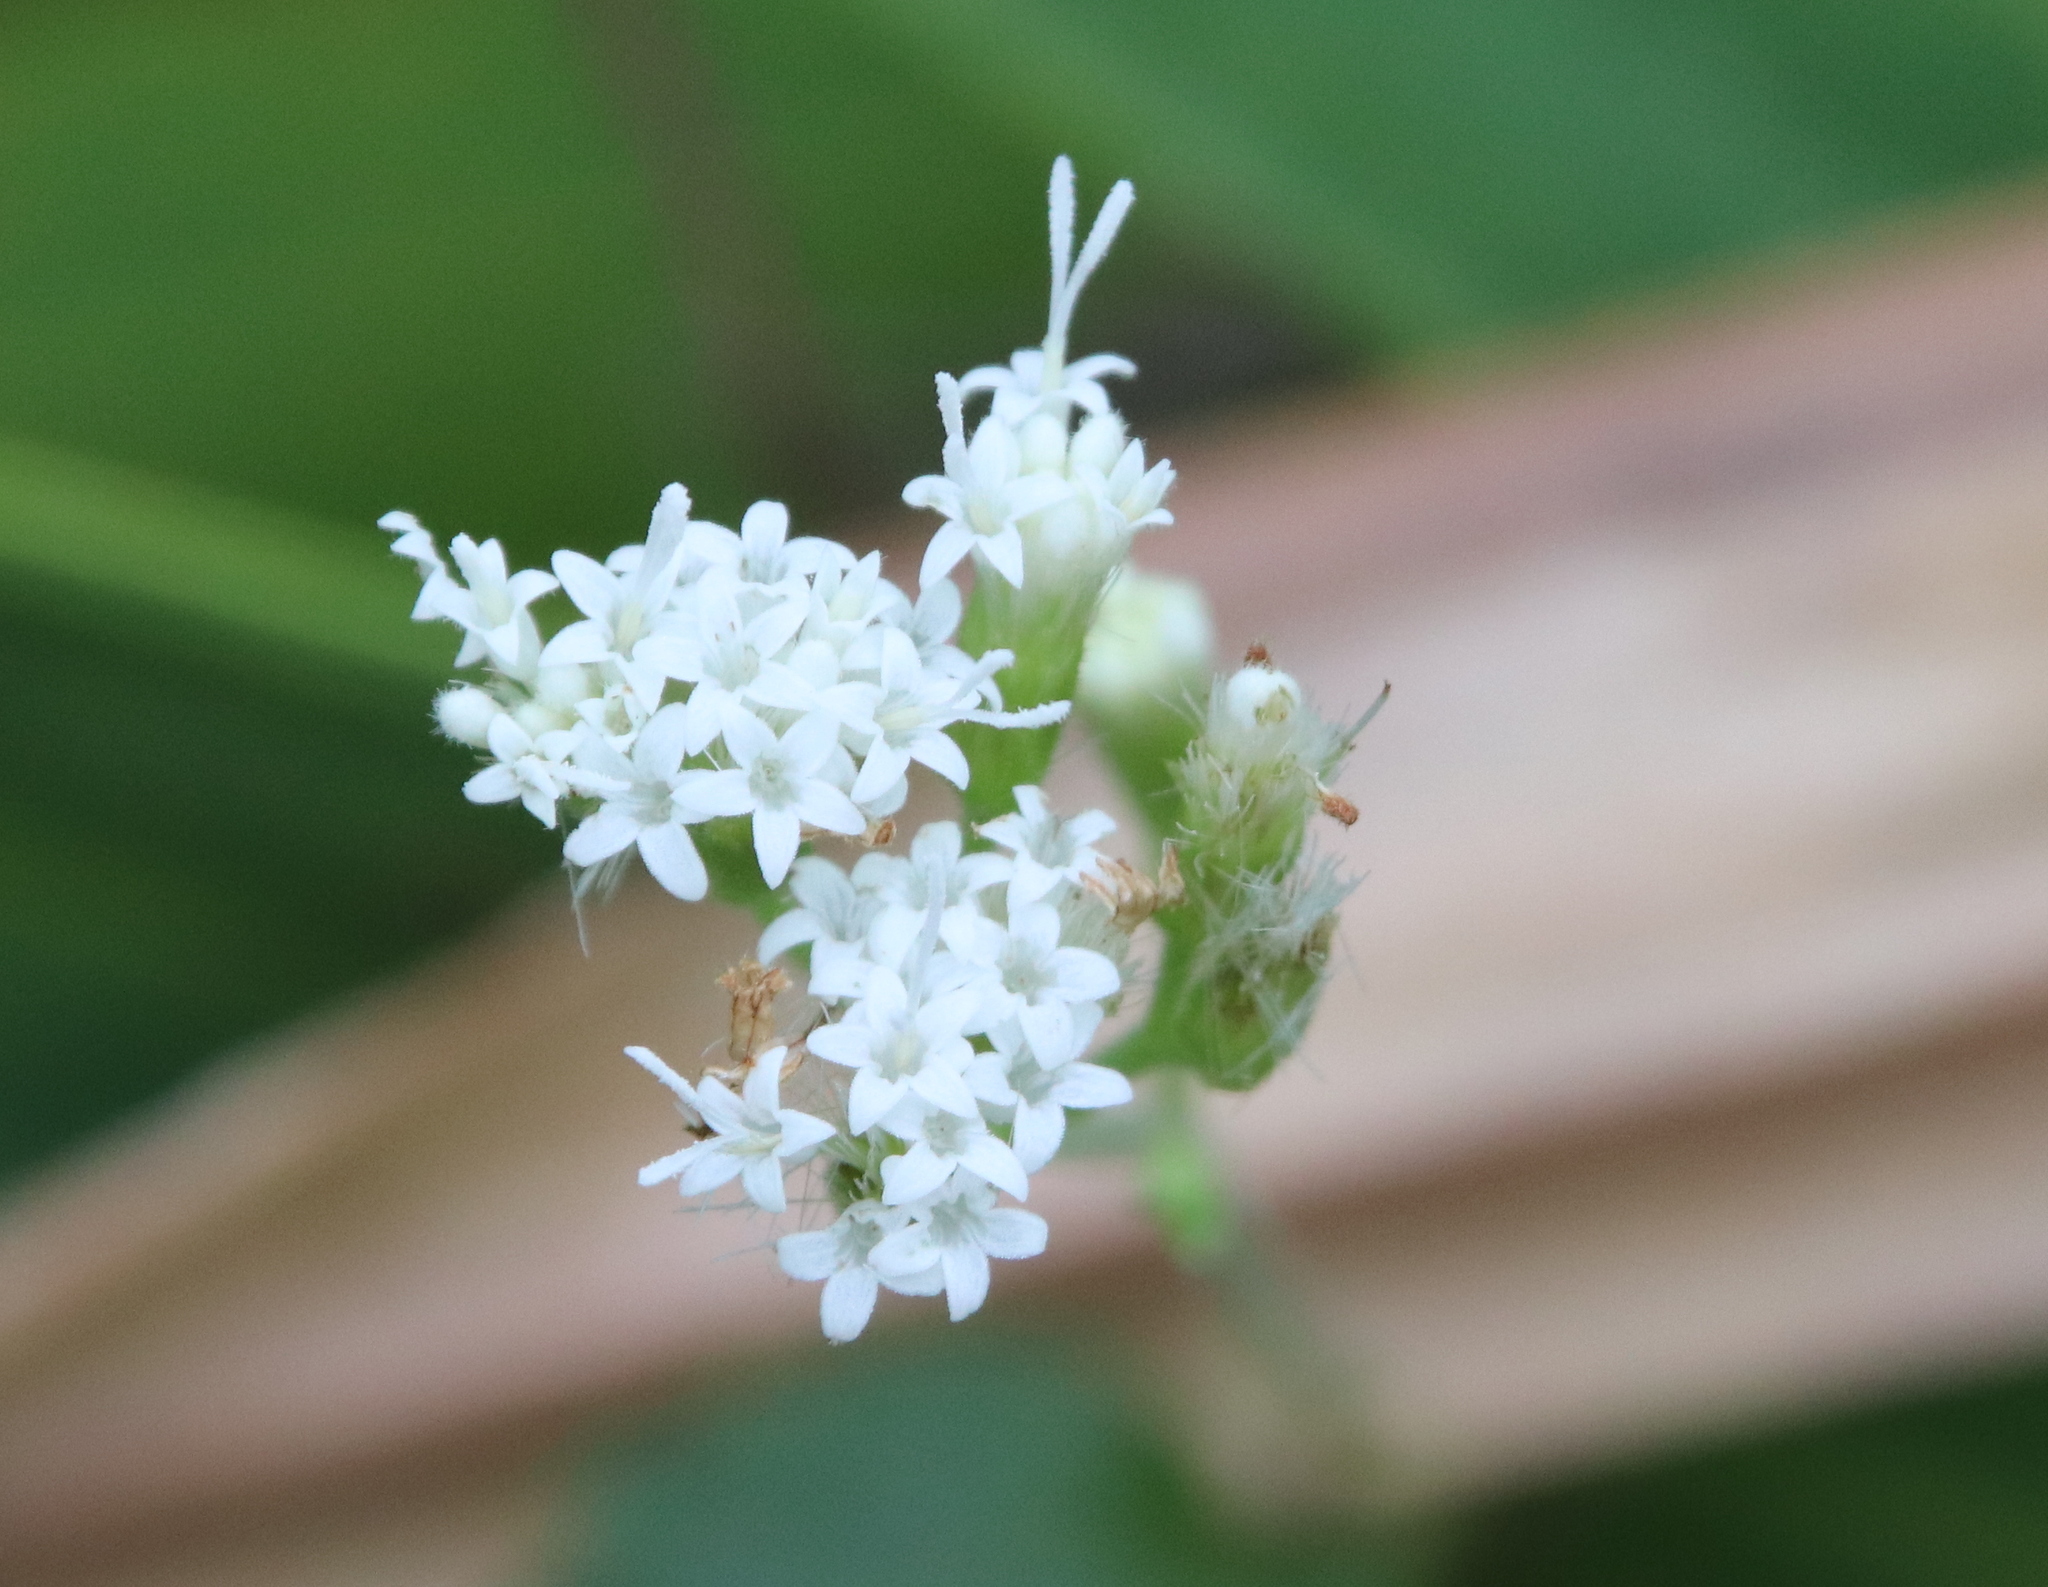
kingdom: Plantae
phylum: Tracheophyta
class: Magnoliopsida
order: Asterales
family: Asteraceae
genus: Ageratina
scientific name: Ageratina altissima
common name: White snakeroot
